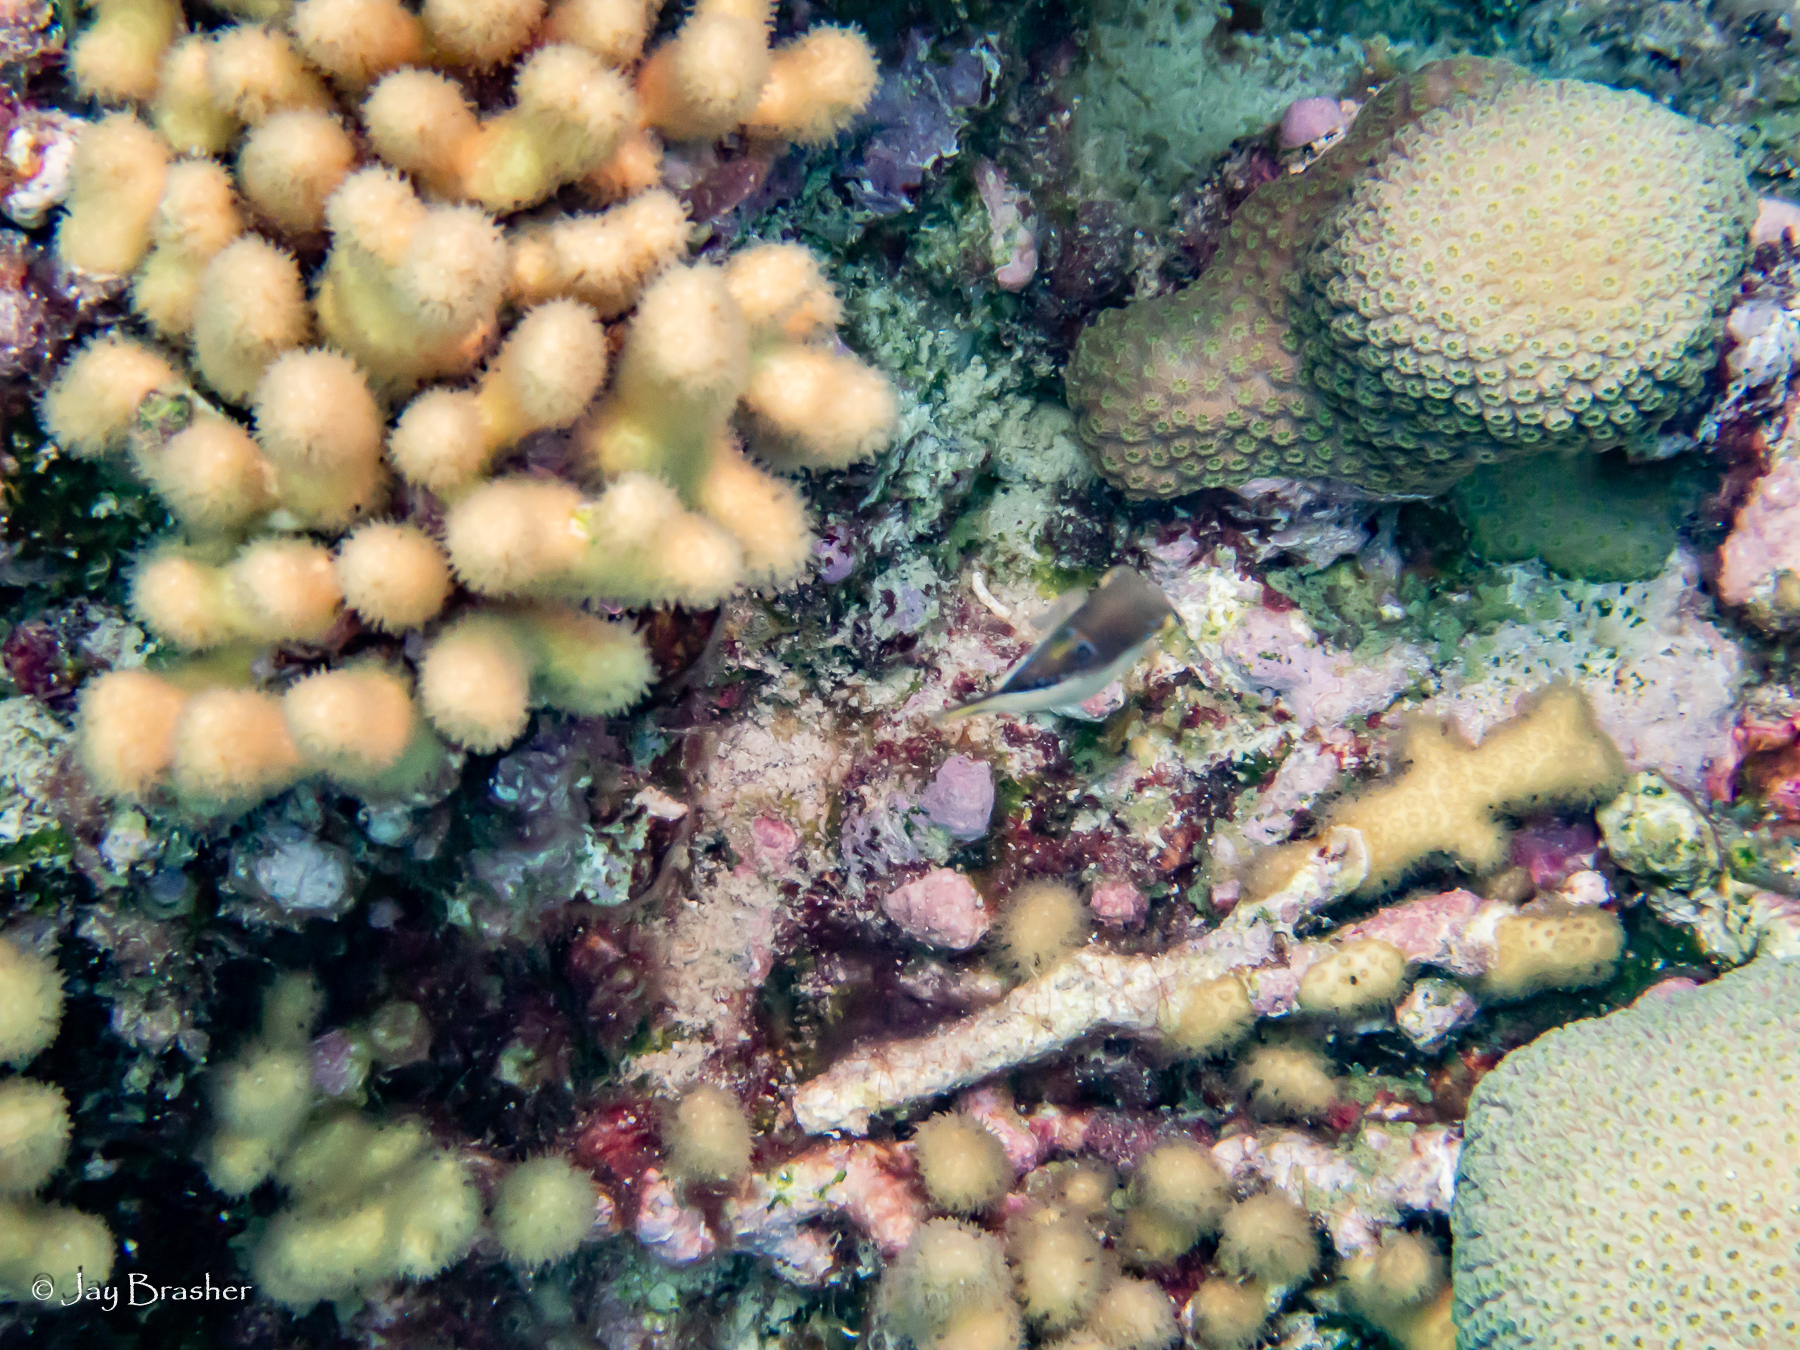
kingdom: Animalia
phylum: Chordata
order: Tetraodontiformes
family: Tetraodontidae
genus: Canthigaster
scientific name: Canthigaster rostrata
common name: Caribbean sharpnose-puffer
